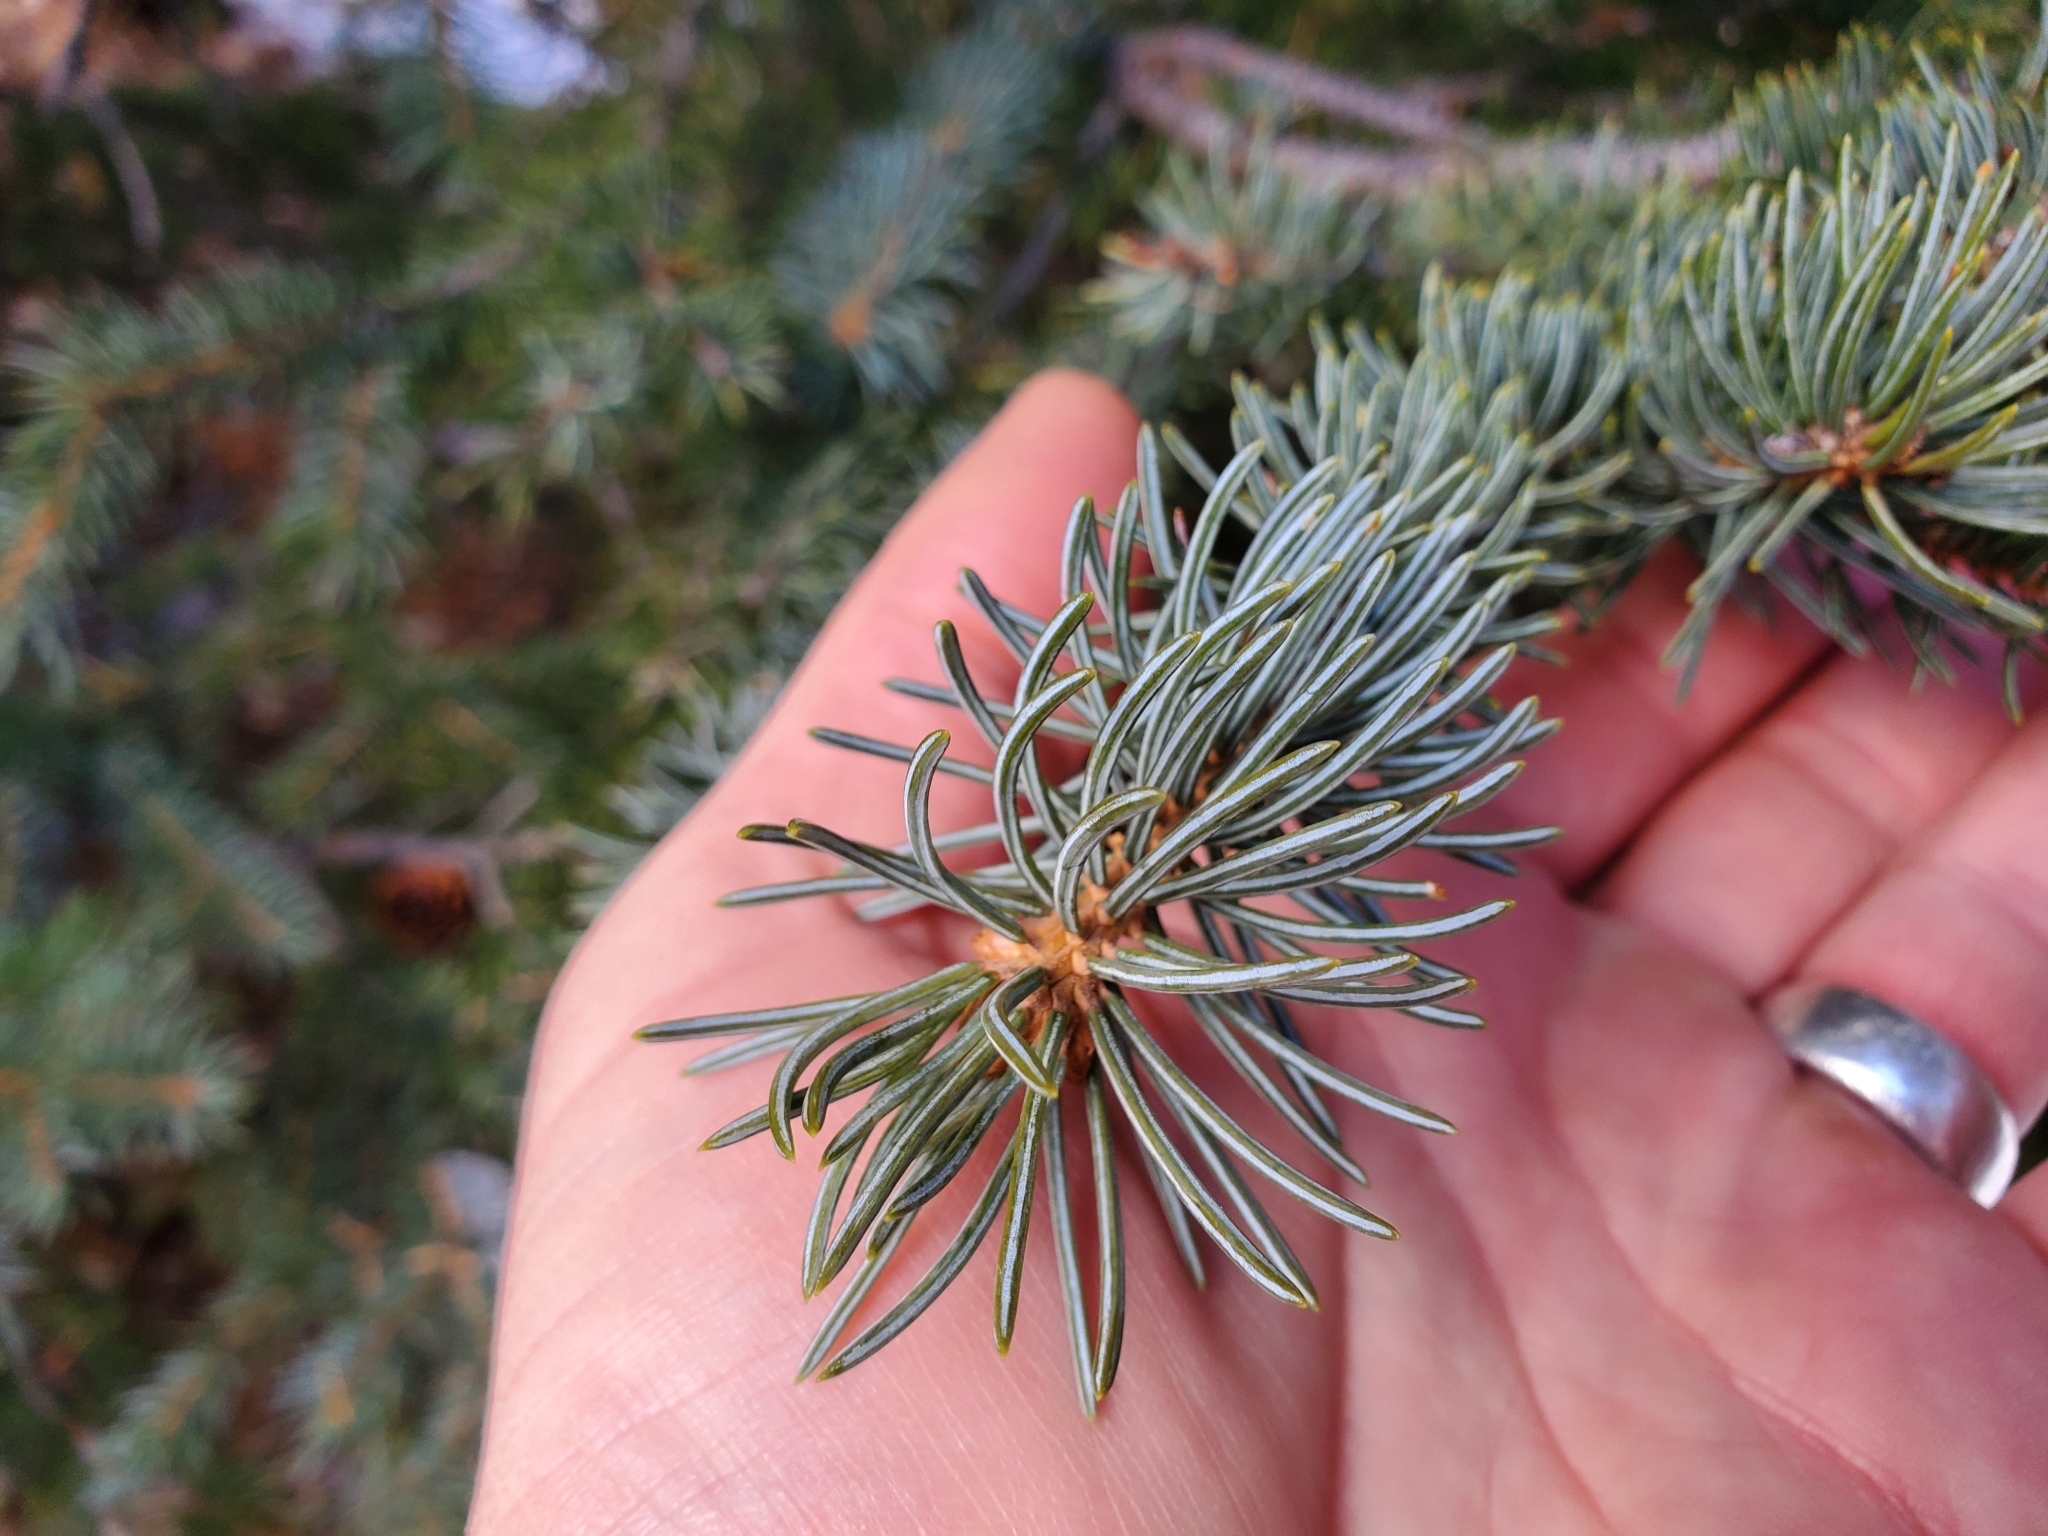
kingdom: Plantae
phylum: Tracheophyta
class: Pinopsida
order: Pinales
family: Pinaceae
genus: Picea
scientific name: Picea pungens
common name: Colorado spruce
